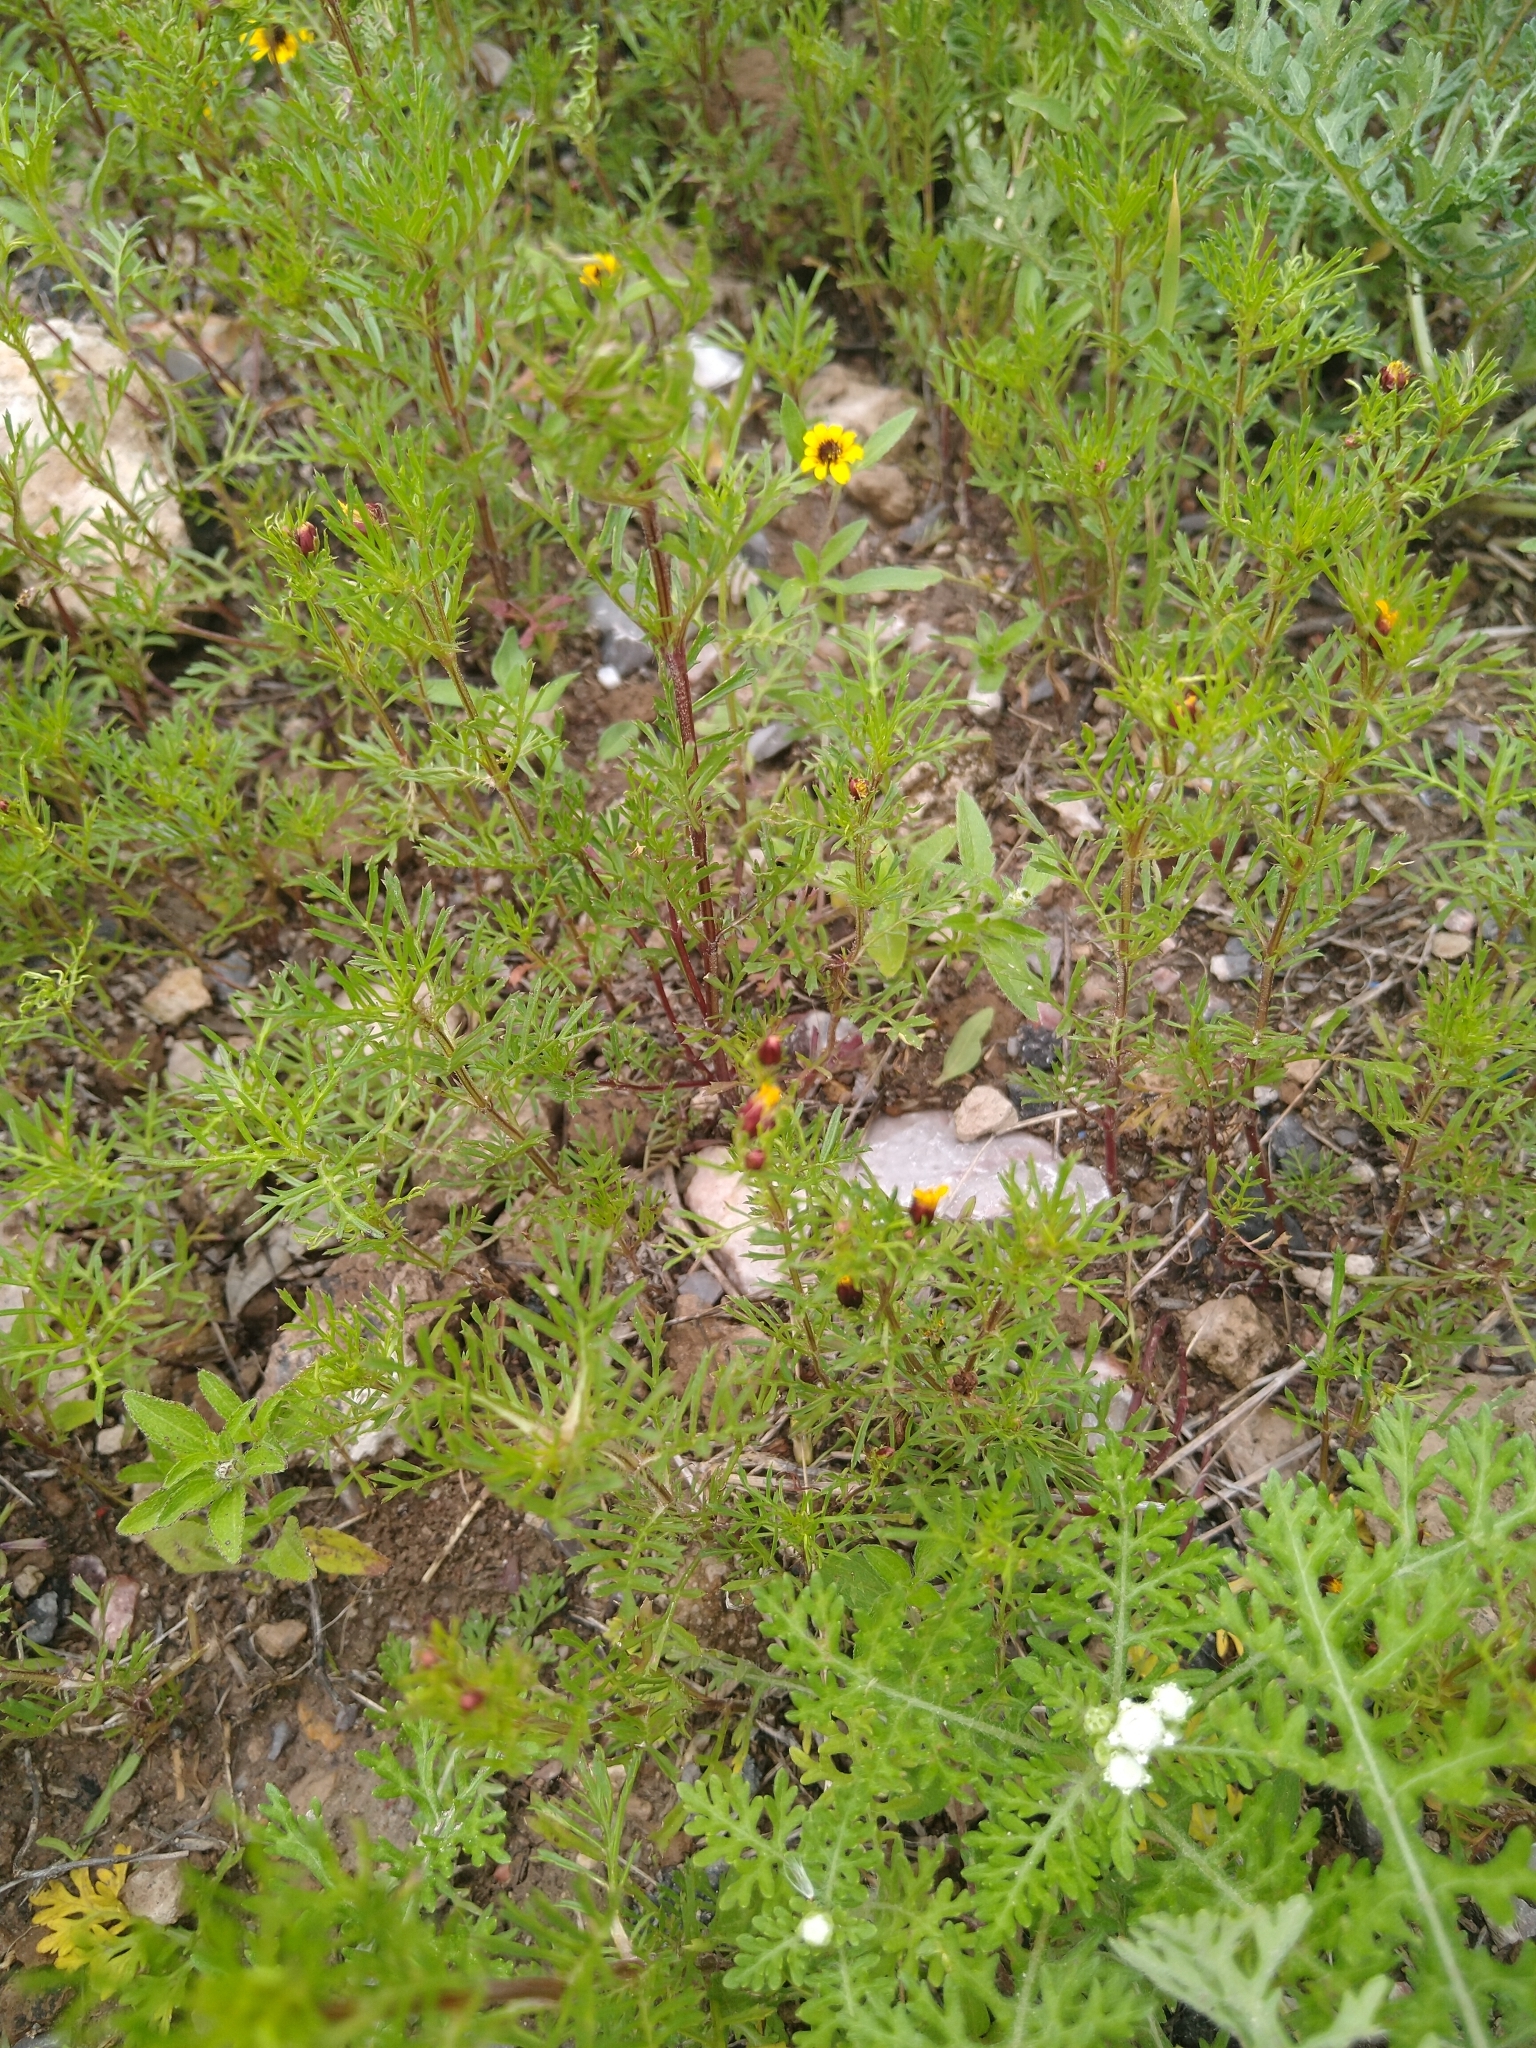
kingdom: Plantae
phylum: Tracheophyta
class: Magnoliopsida
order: Asterales
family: Asteraceae
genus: Dyssodia
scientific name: Dyssodia papposa
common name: Dogweed
